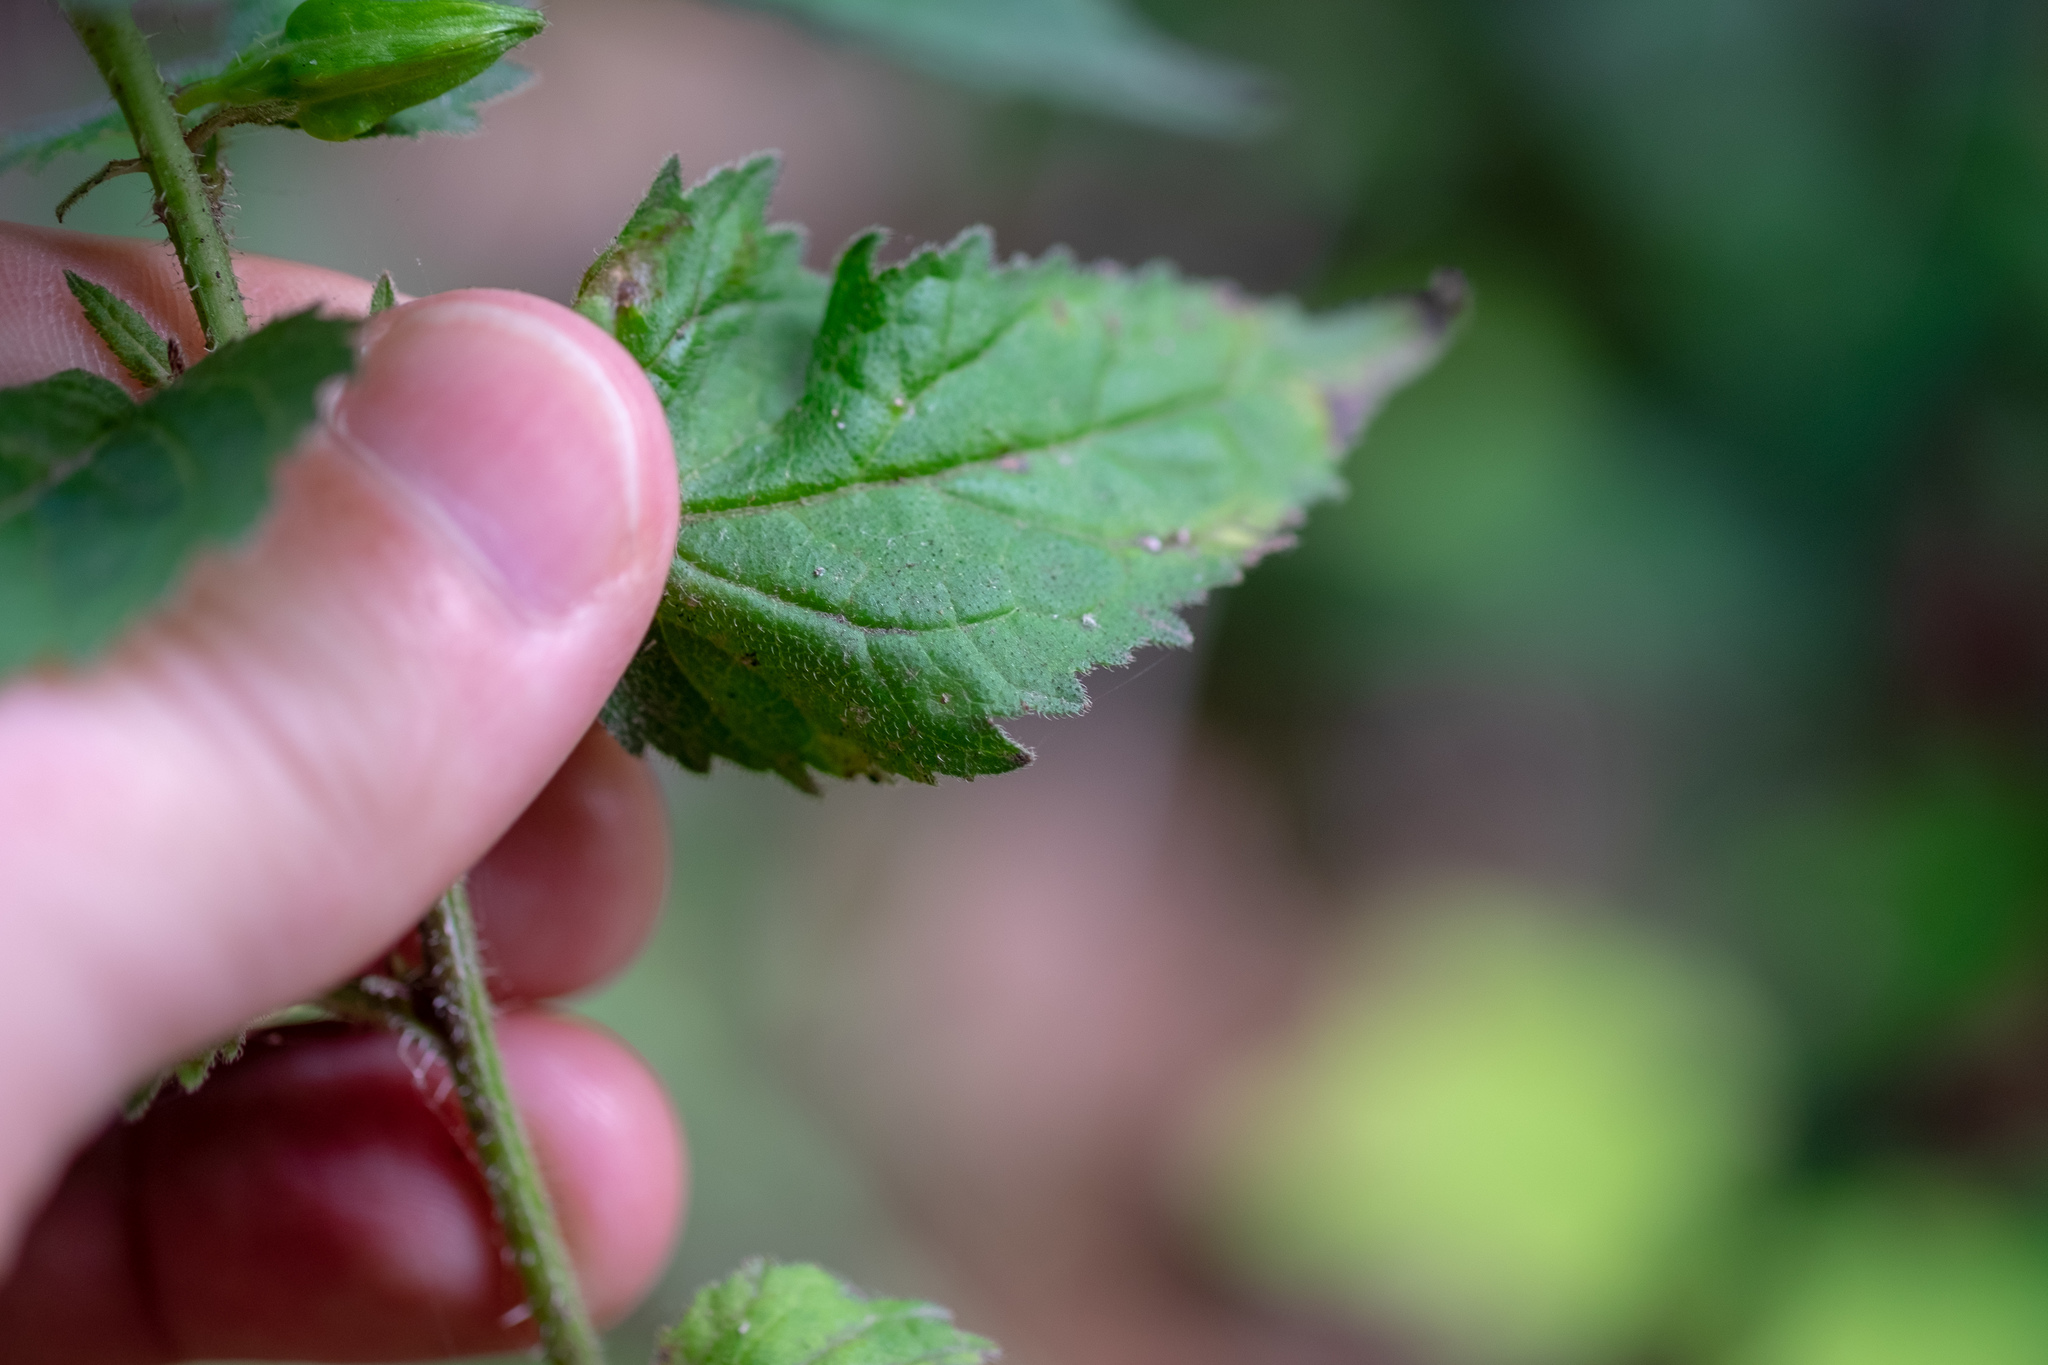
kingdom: Plantae
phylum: Tracheophyta
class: Magnoliopsida
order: Asterales
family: Campanulaceae
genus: Campanula
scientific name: Campanula trachelium
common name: Nettle-leaved bellflower
